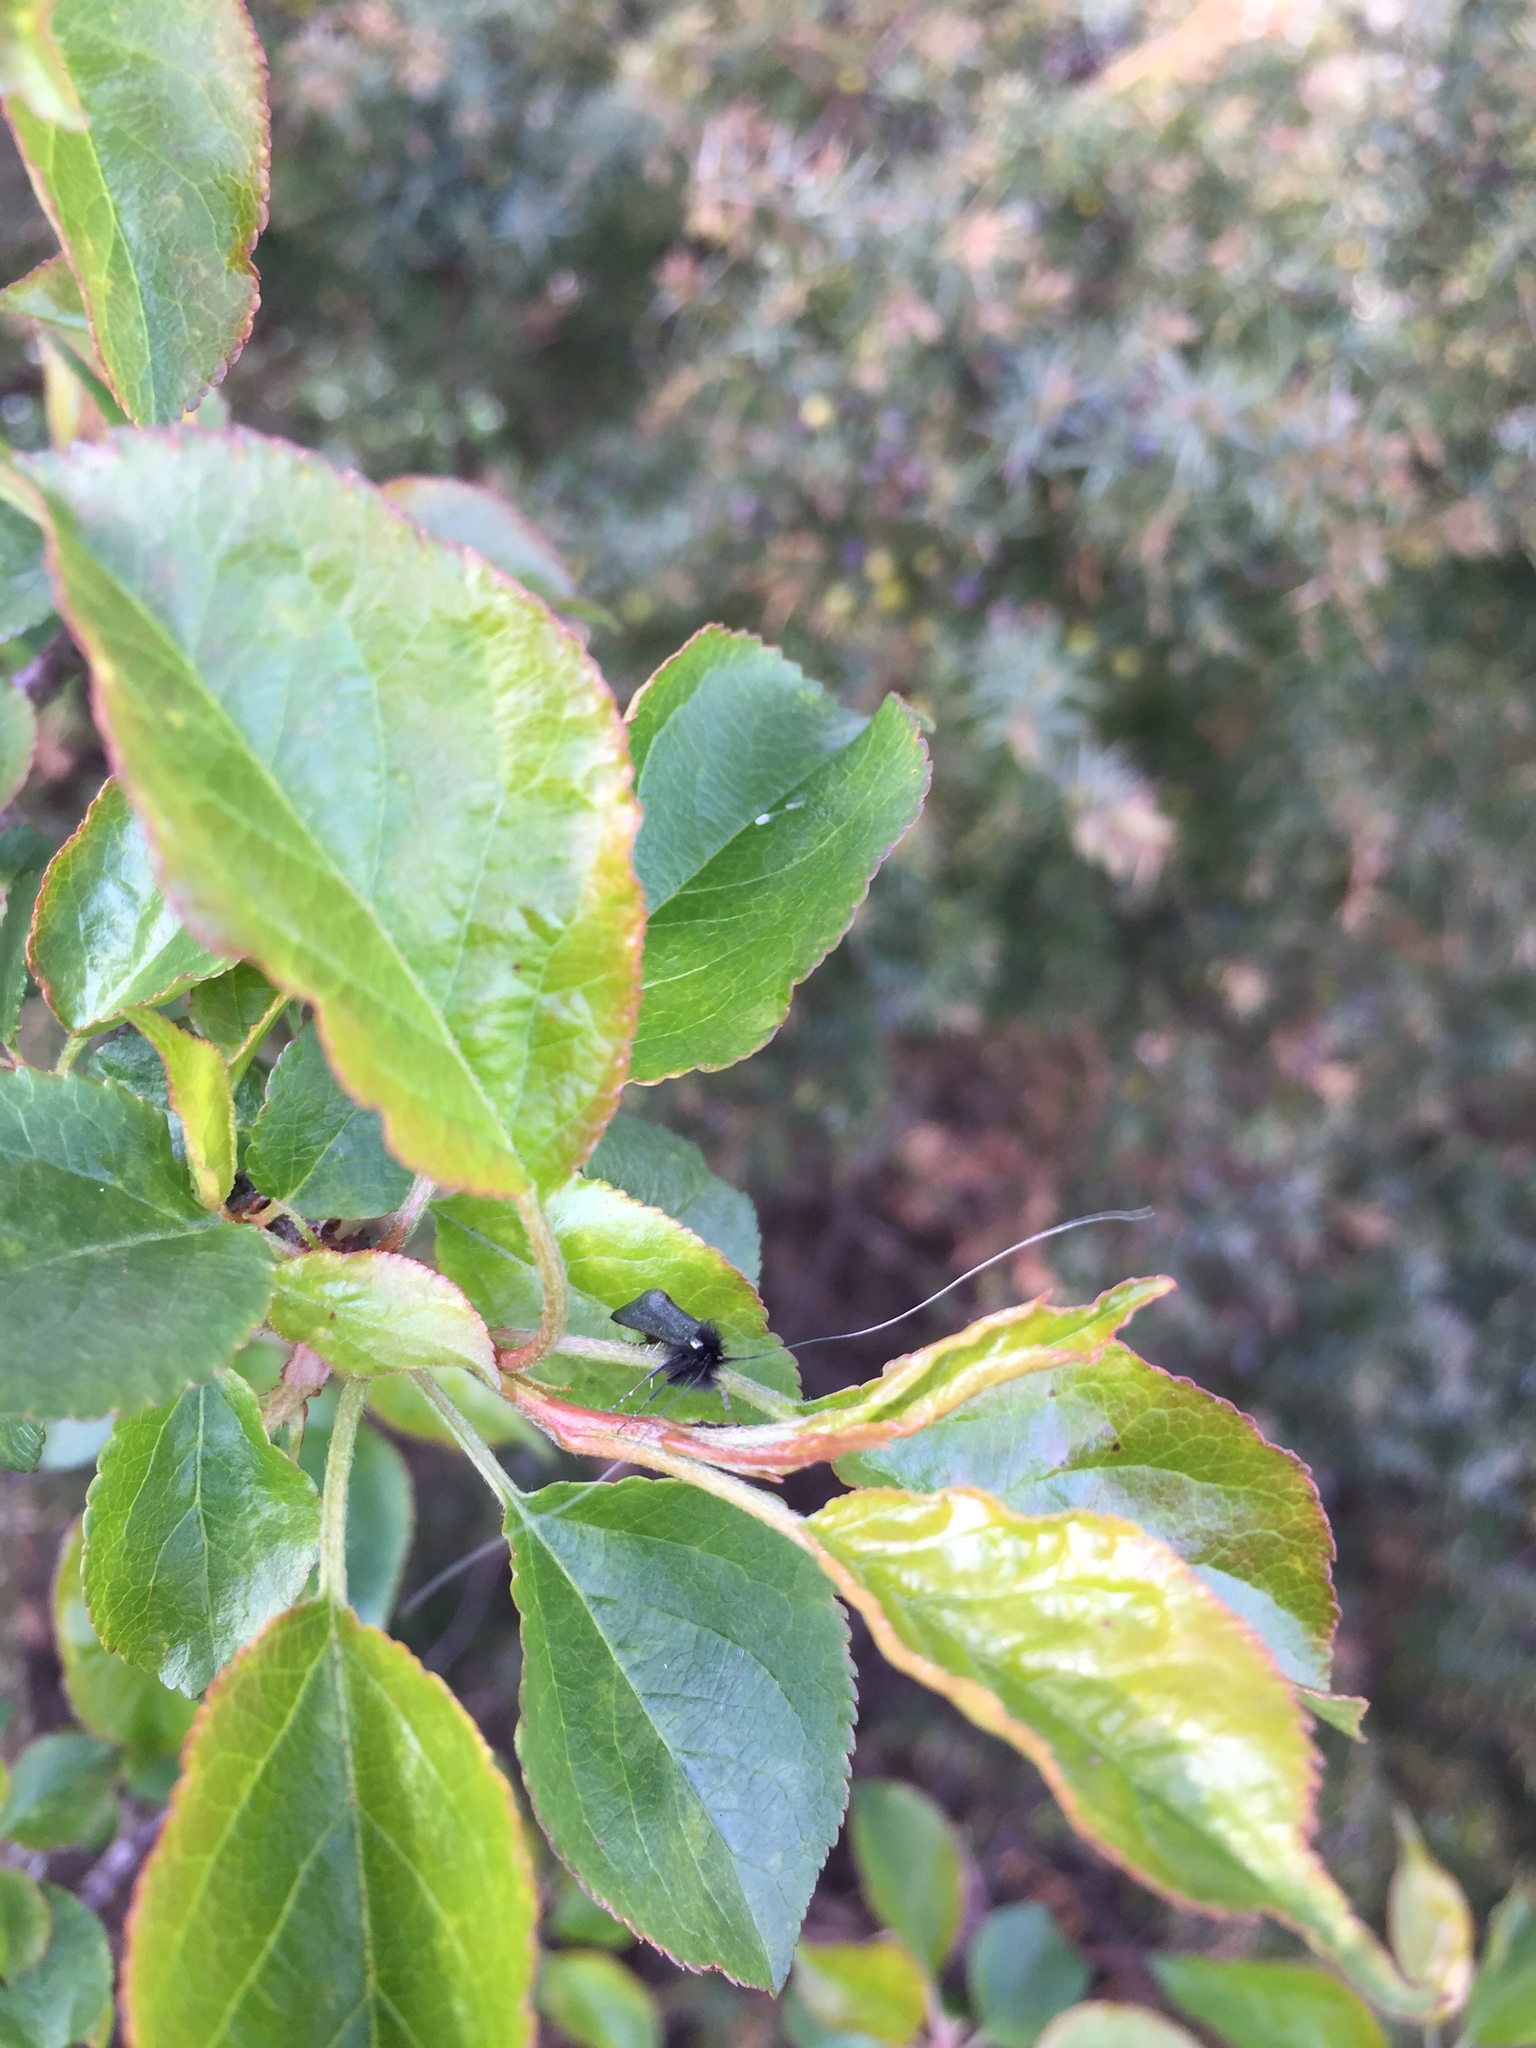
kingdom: Animalia
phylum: Arthropoda
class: Insecta
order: Lepidoptera
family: Adelidae
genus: Adela
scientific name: Adela viridella
